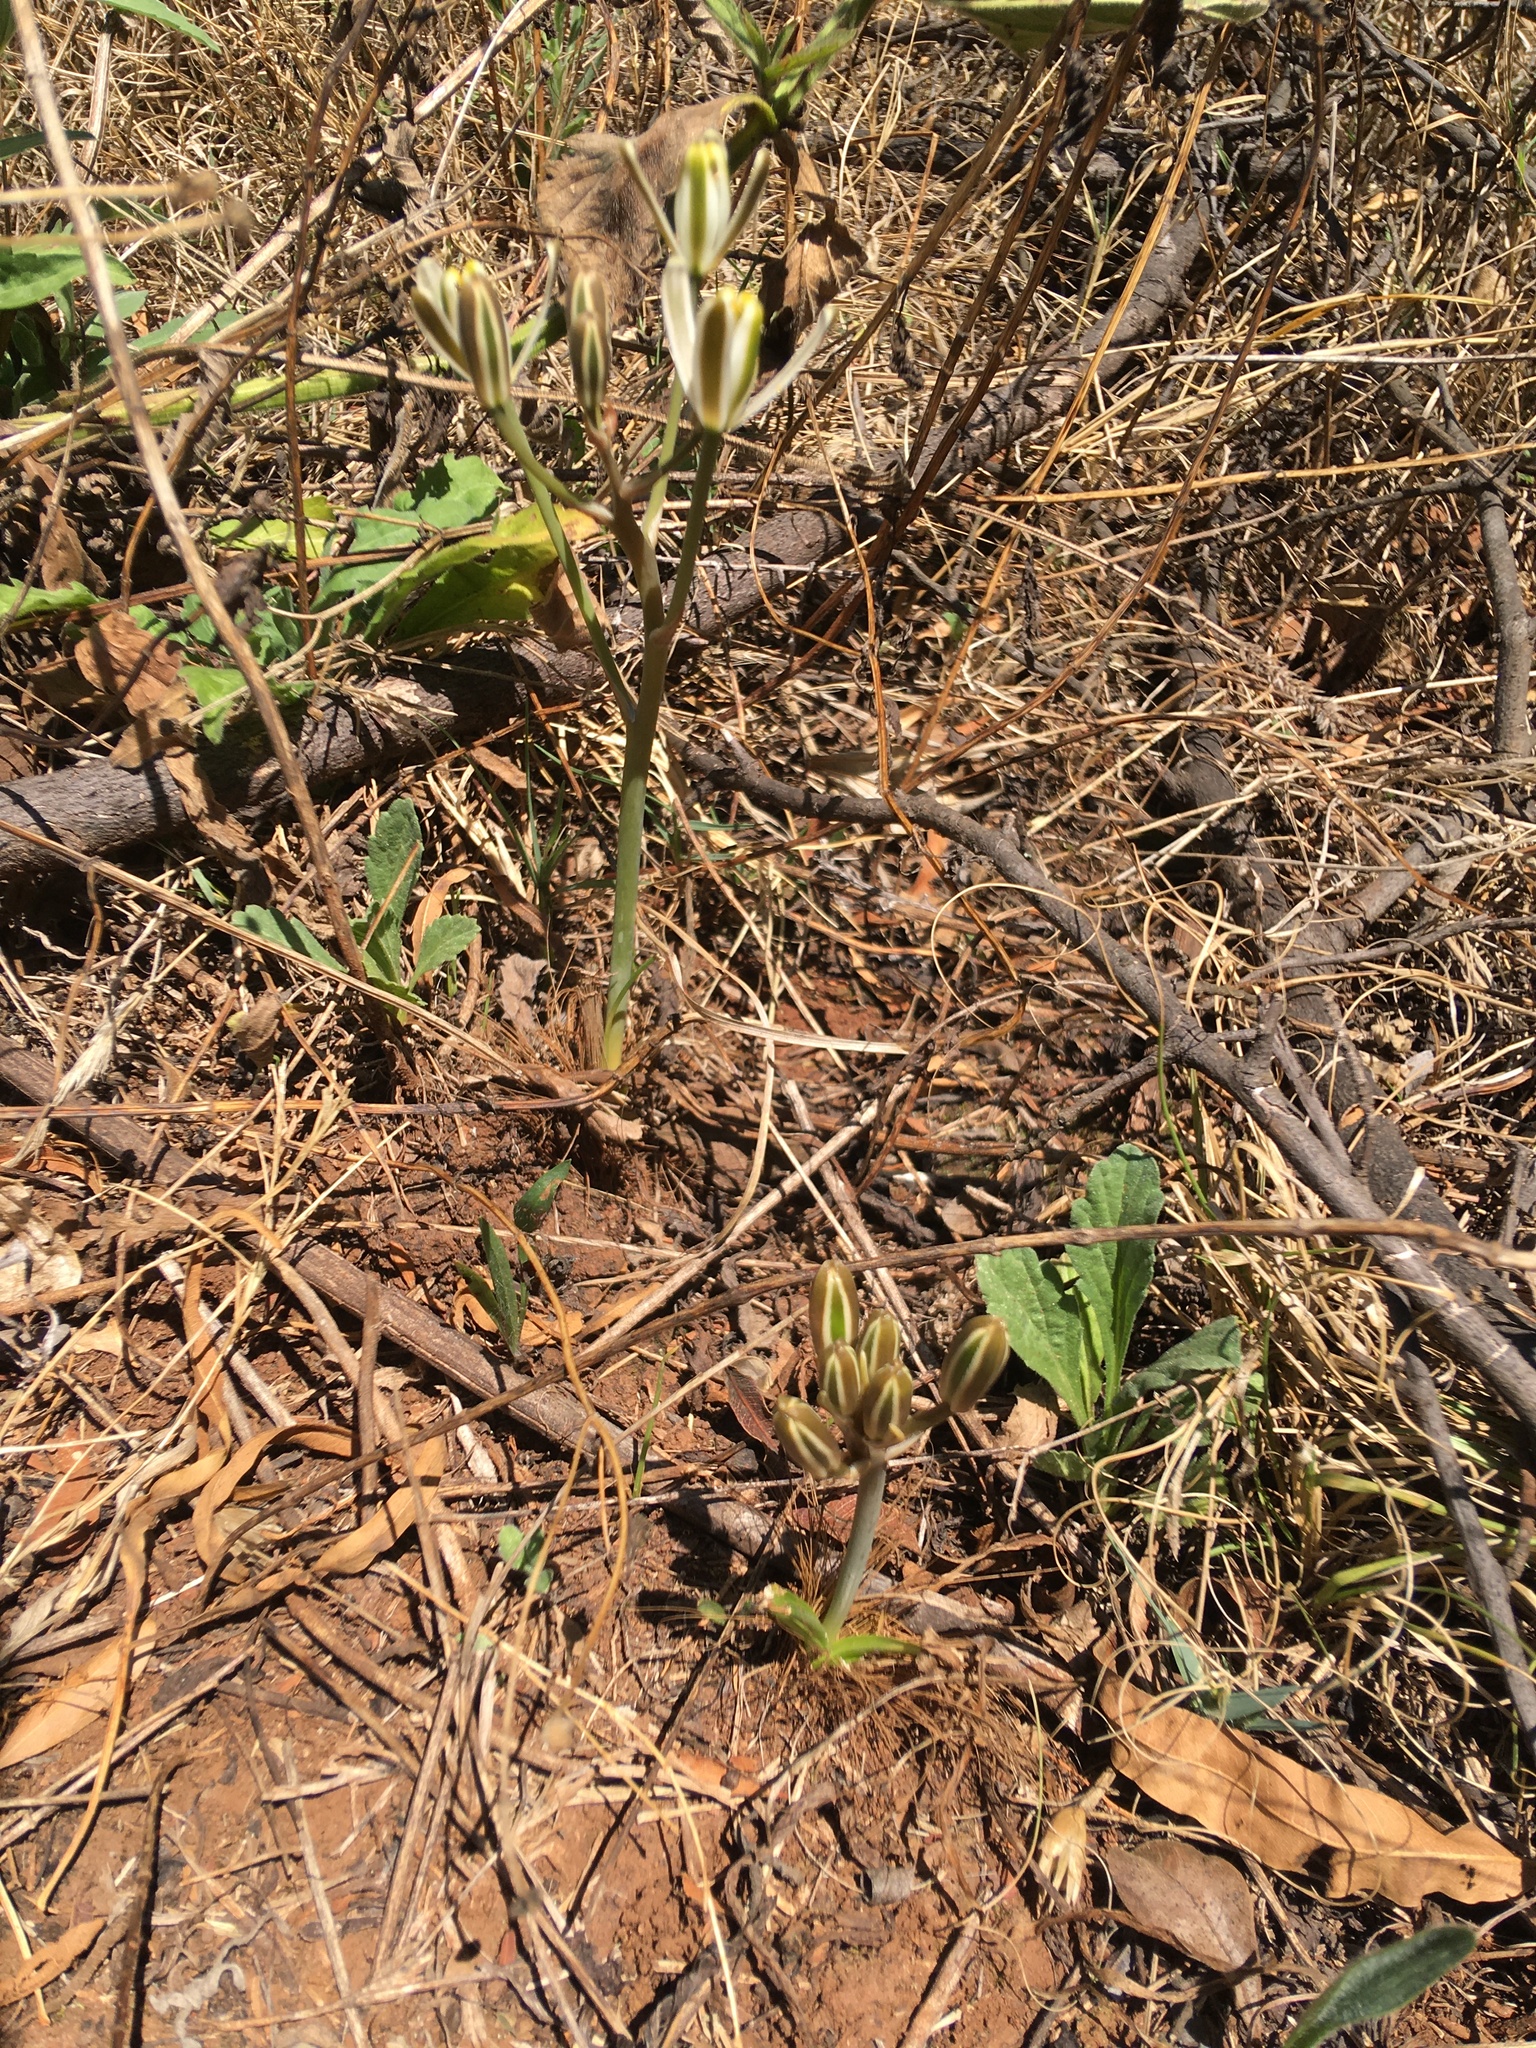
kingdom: Plantae
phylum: Tracheophyta
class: Liliopsida
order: Asparagales
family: Asparagaceae
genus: Albuca
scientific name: Albuca setosa
